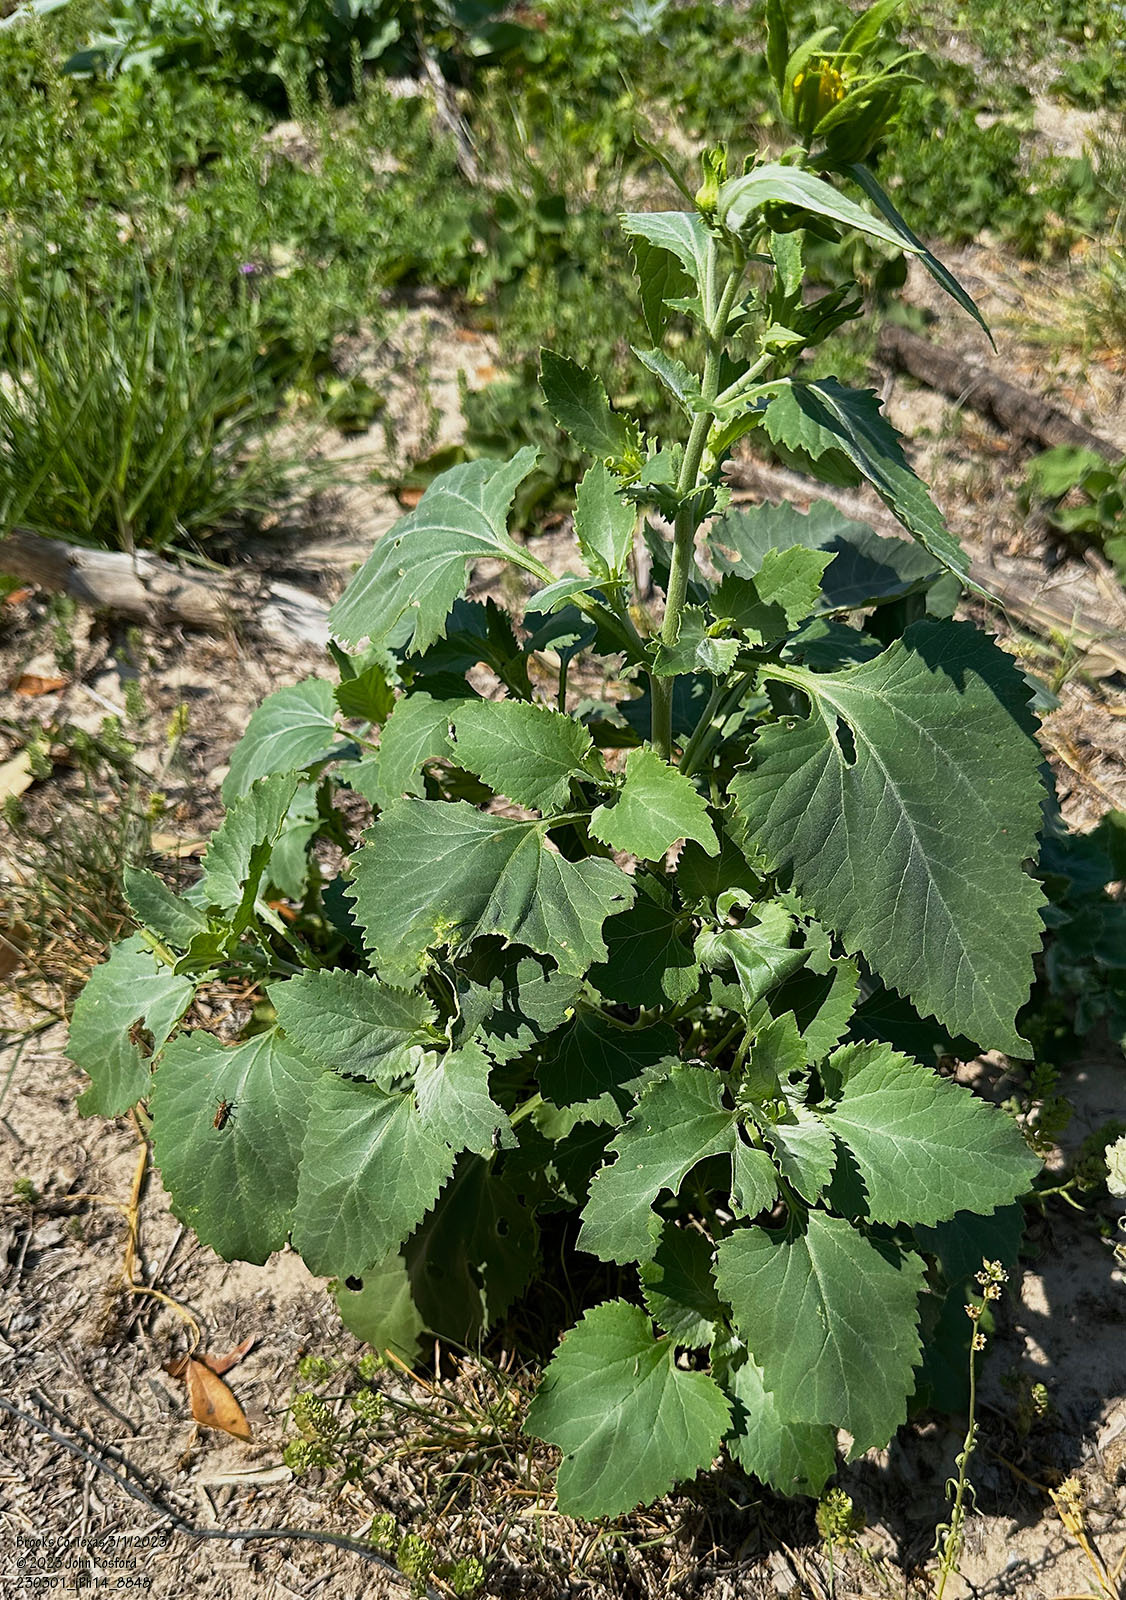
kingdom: Plantae
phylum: Tracheophyta
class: Magnoliopsida
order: Asterales
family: Asteraceae
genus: Verbesina
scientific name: Verbesina encelioides
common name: Golden crownbeard
